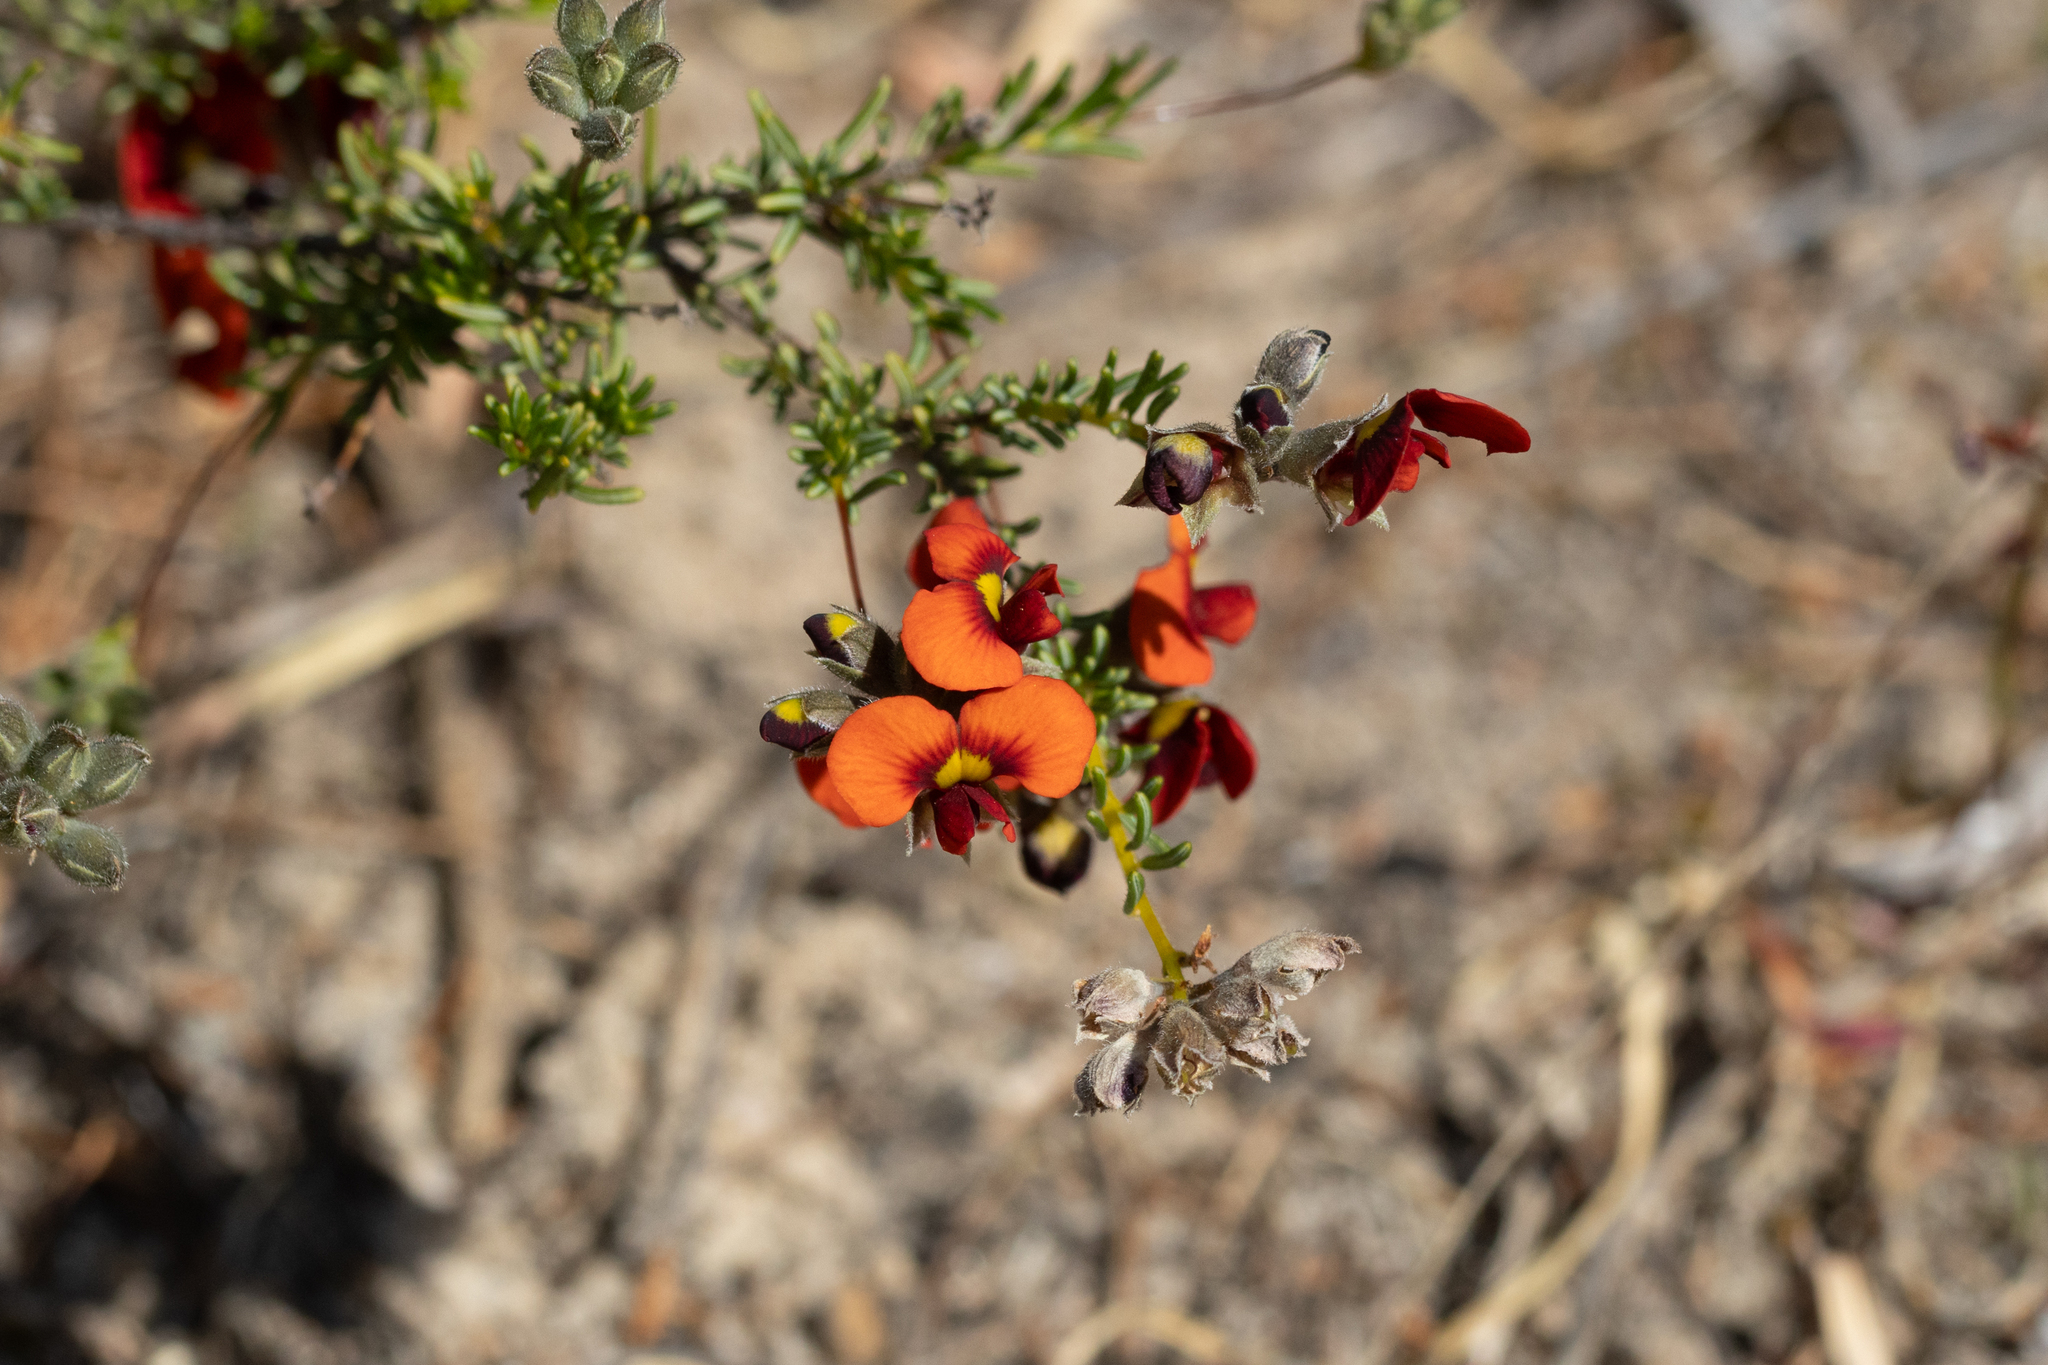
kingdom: Plantae
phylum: Tracheophyta
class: Magnoliopsida
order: Fabales
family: Fabaceae
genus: Dillwynia
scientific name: Dillwynia hispida
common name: Red parrot-pea
